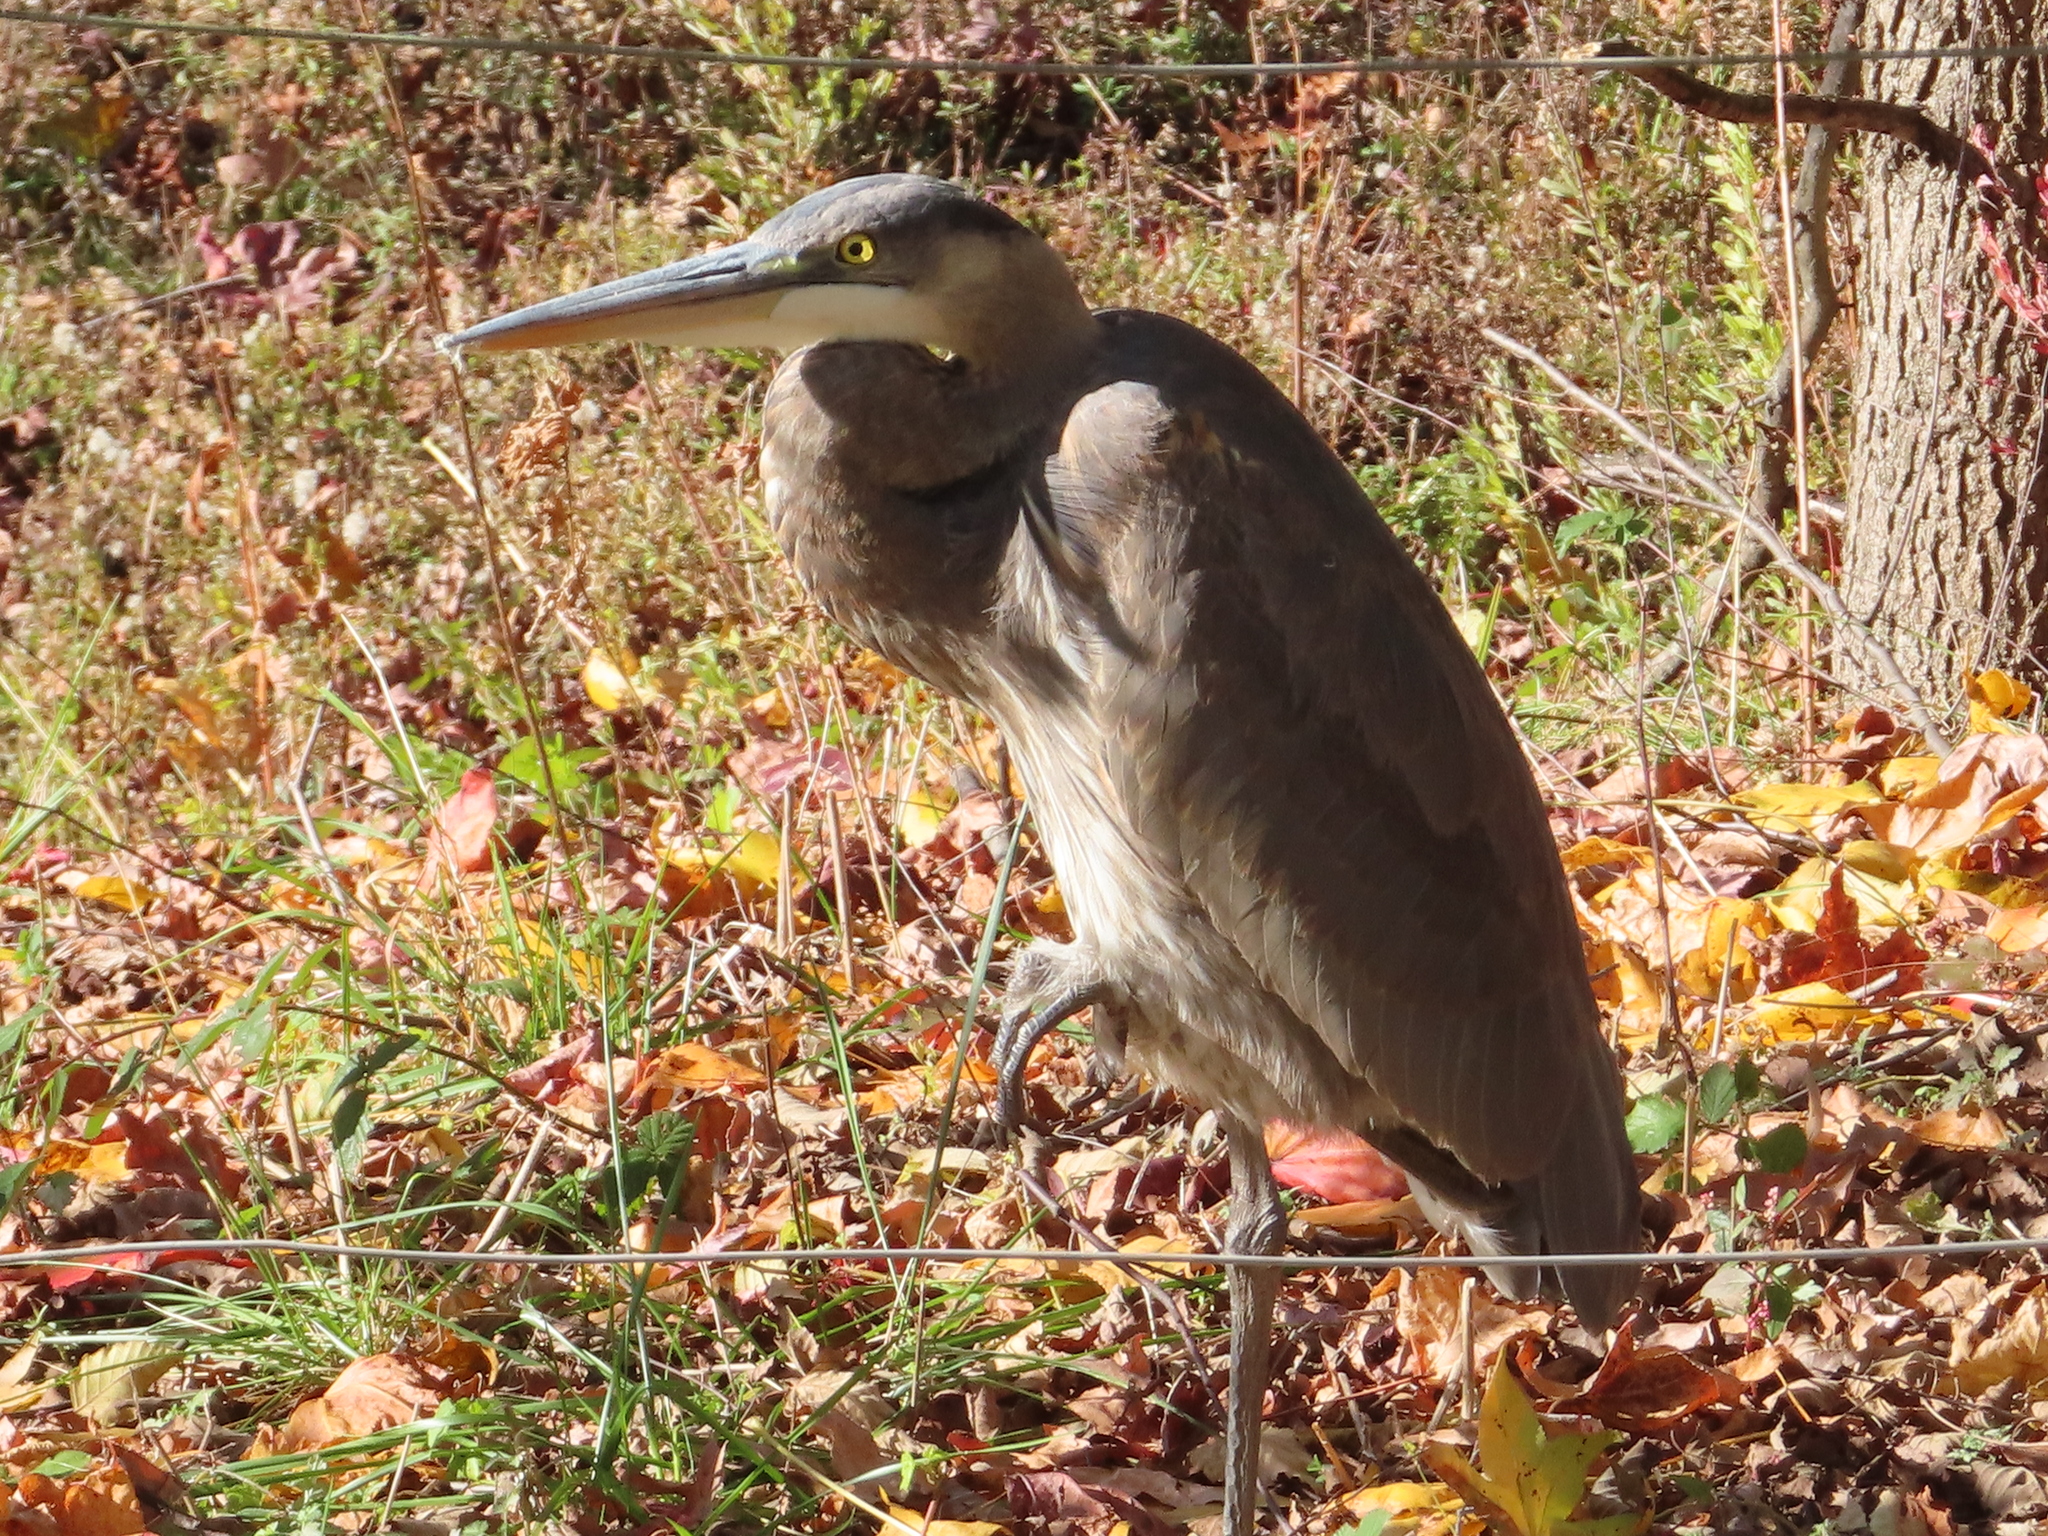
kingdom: Animalia
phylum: Chordata
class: Aves
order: Pelecaniformes
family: Ardeidae
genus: Ardea
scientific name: Ardea herodias
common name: Great blue heron
